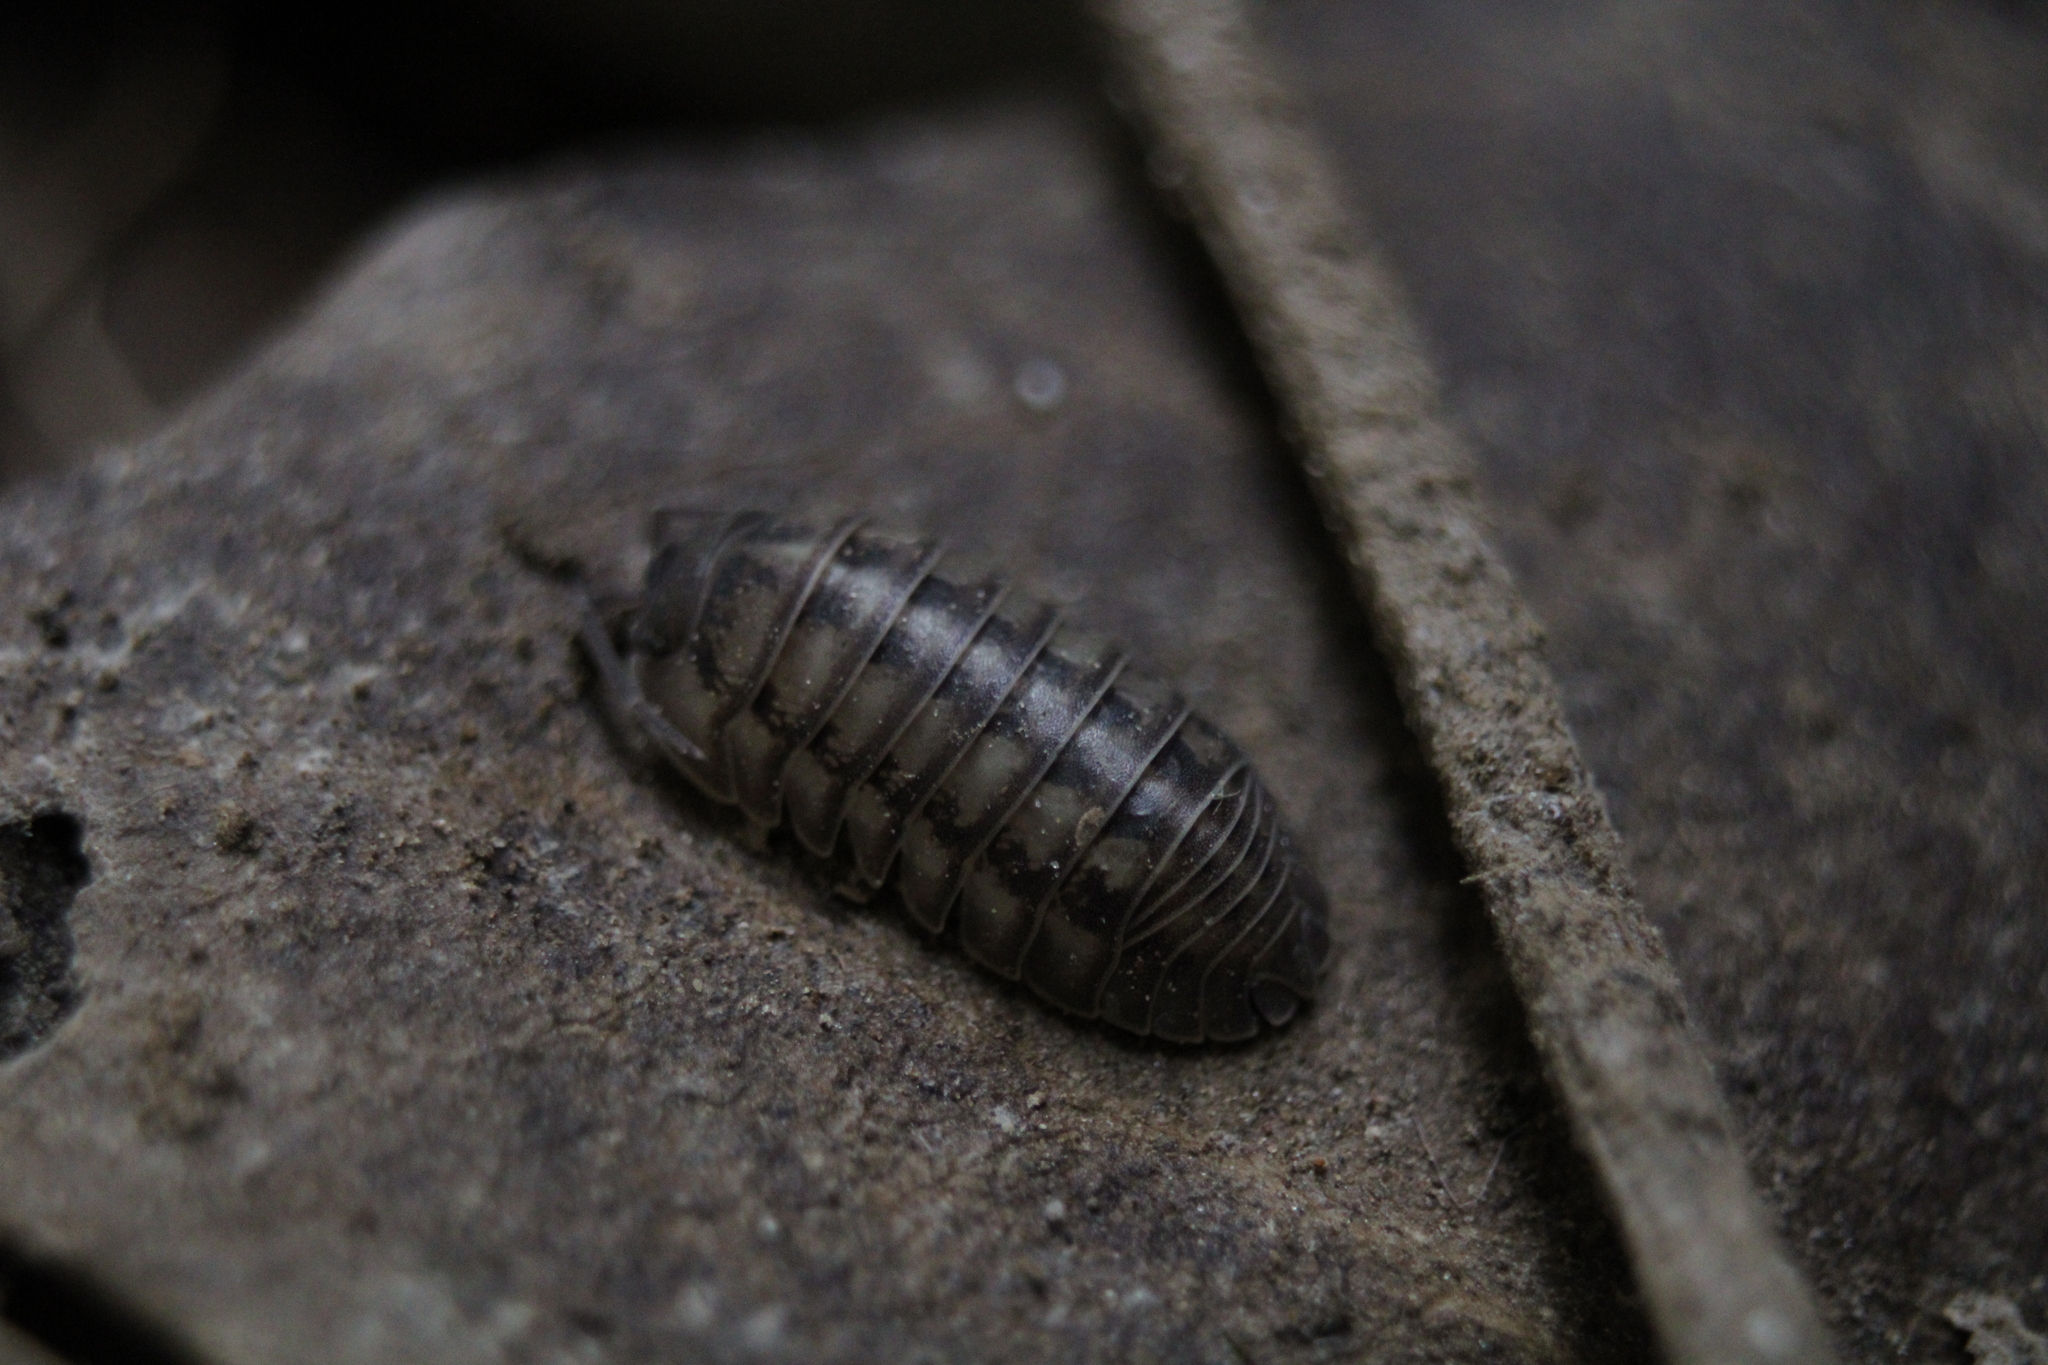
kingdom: Animalia
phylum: Arthropoda
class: Malacostraca
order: Isopoda
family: Armadillidiidae
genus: Armadillidium
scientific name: Armadillidium nasatum
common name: Isopod
